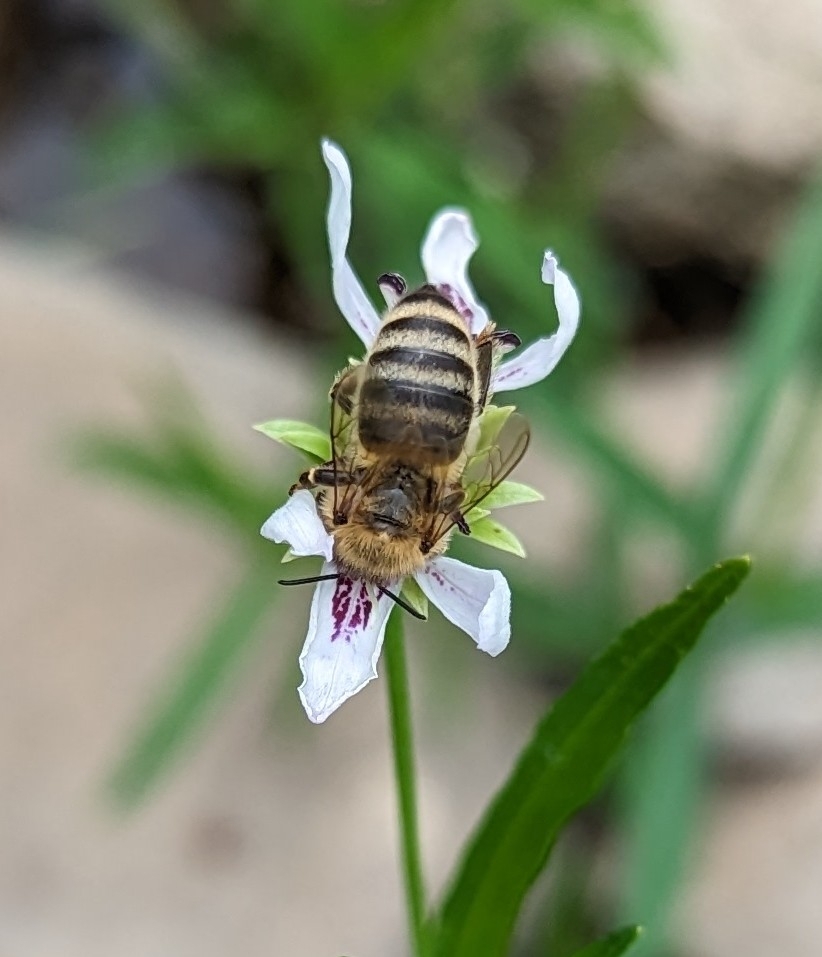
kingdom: Animalia
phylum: Arthropoda
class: Insecta
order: Hymenoptera
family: Apidae
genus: Apis
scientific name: Apis mellifera
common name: Honey bee
